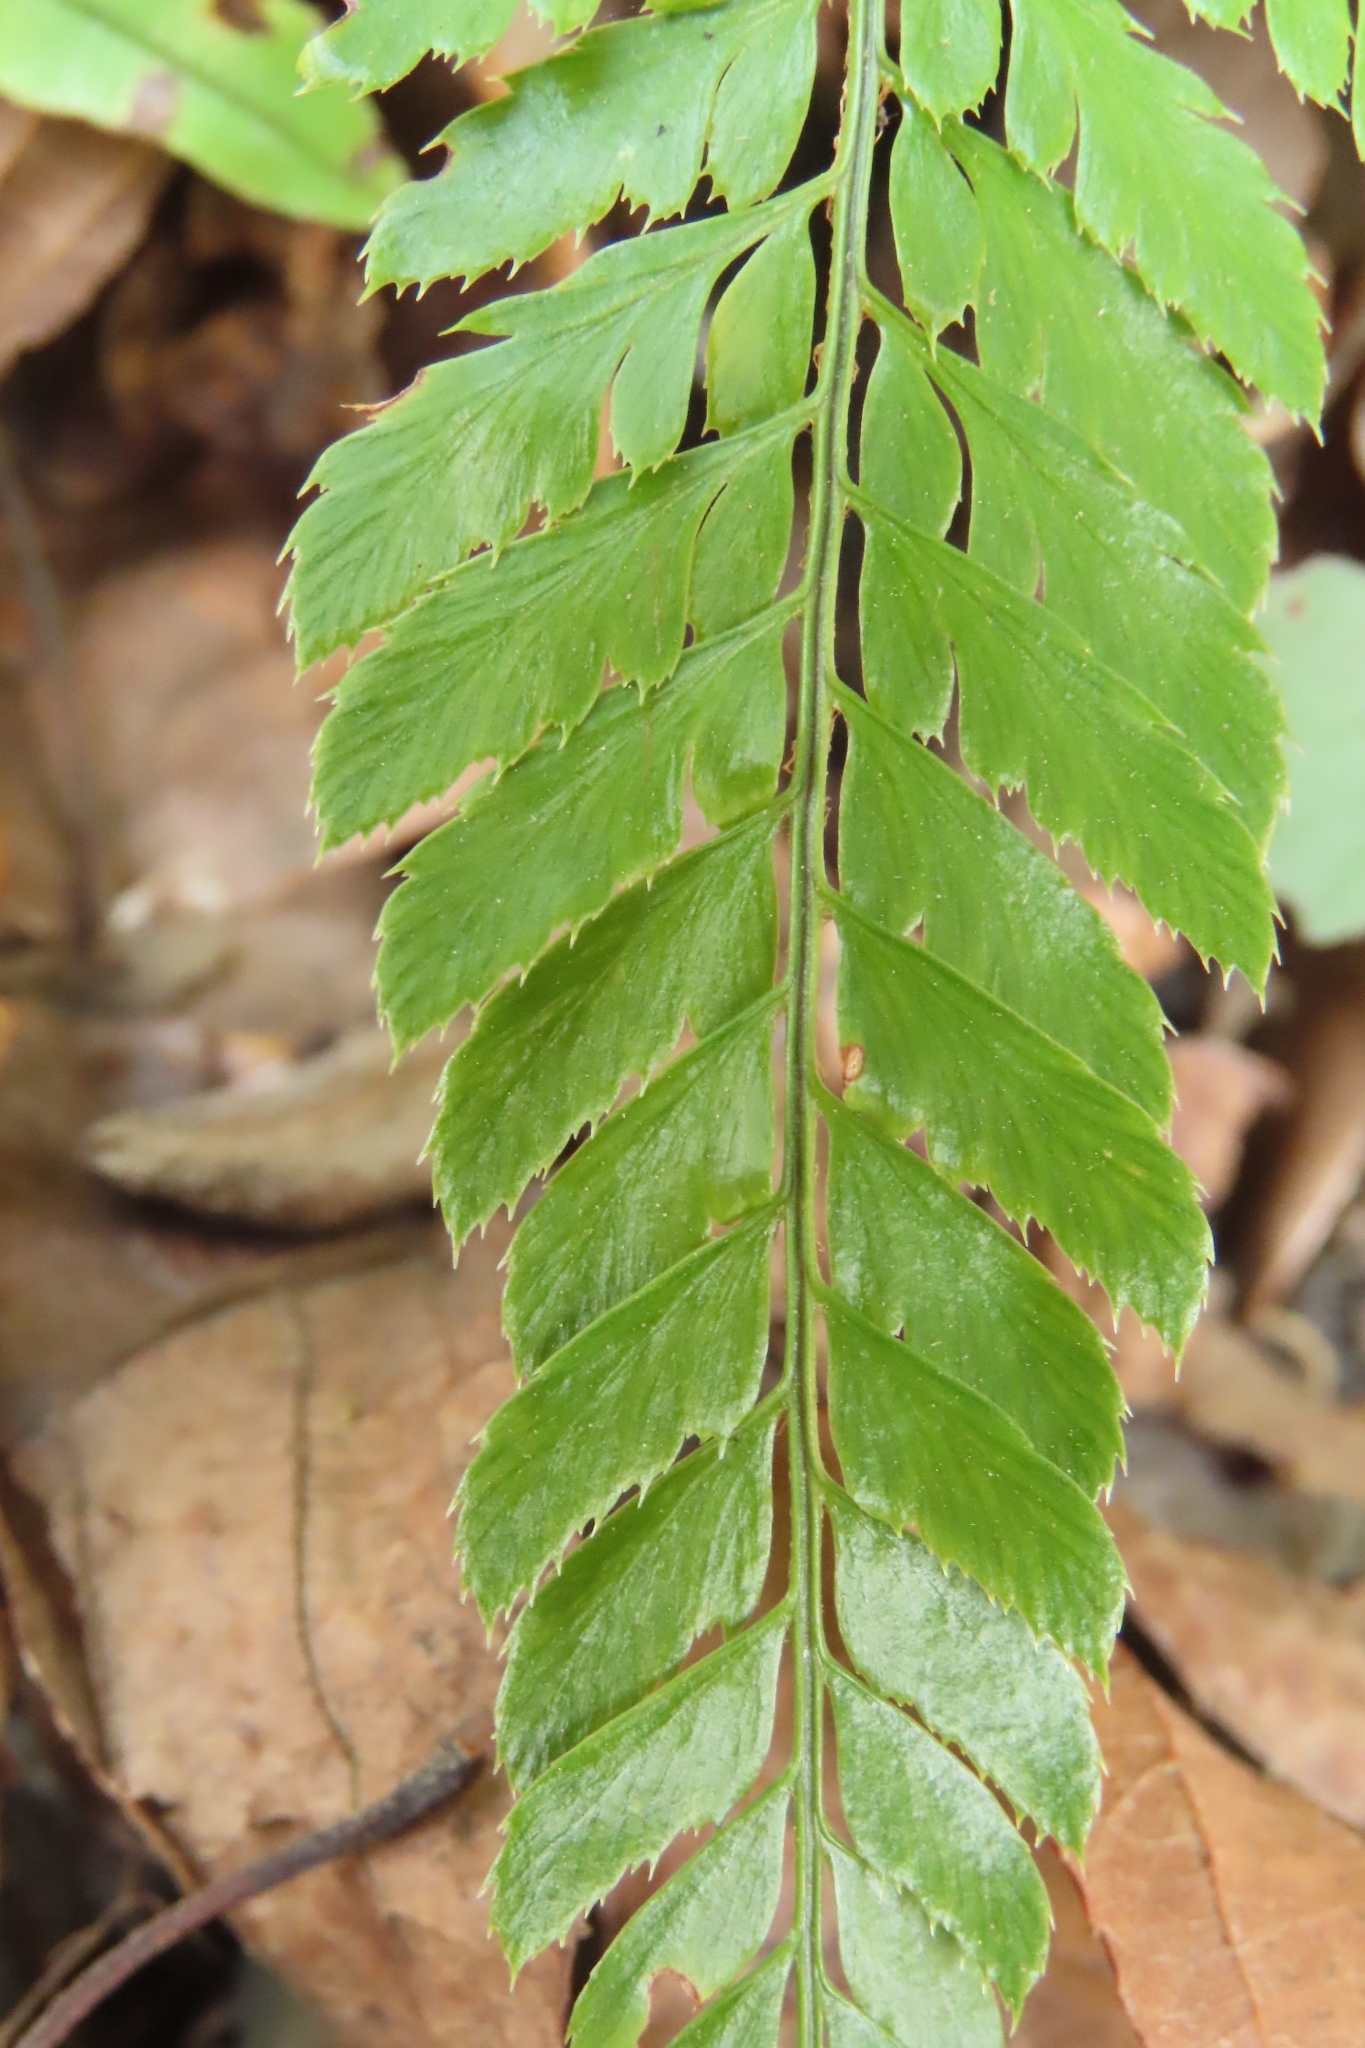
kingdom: Plantae
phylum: Tracheophyta
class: Polypodiopsida
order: Polypodiales
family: Dryopteridaceae
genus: Arachniodes
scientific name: Arachniodes aristata
